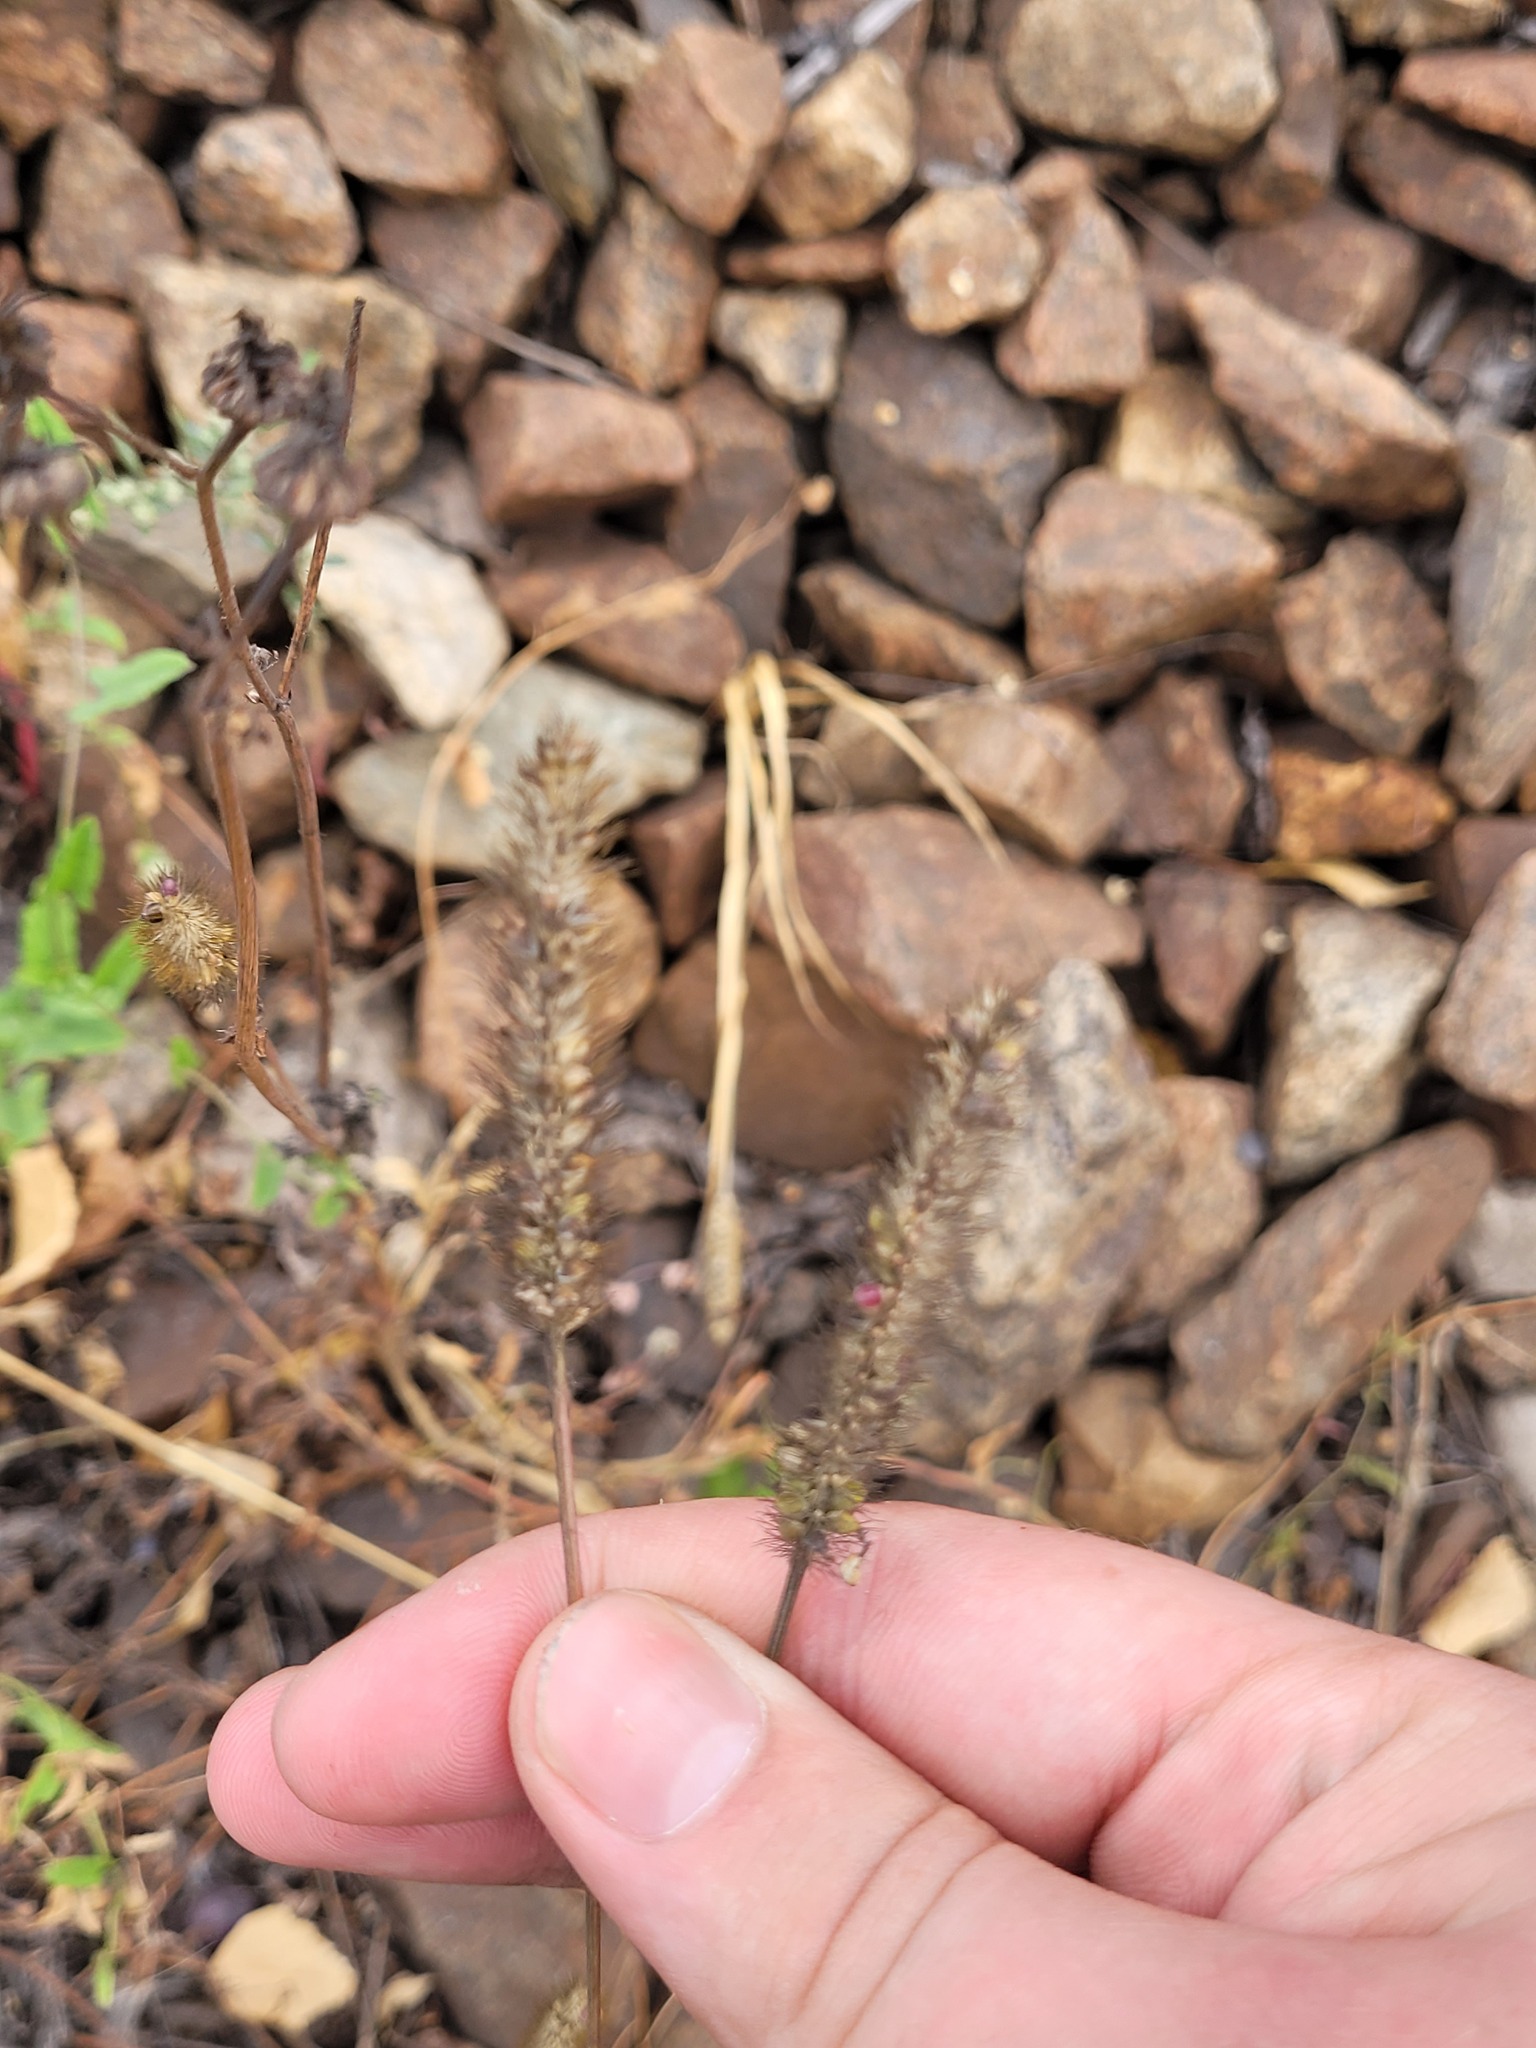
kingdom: Plantae
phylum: Tracheophyta
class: Liliopsida
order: Poales
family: Poaceae
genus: Setaria
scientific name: Setaria pumila
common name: Yellow bristle-grass
